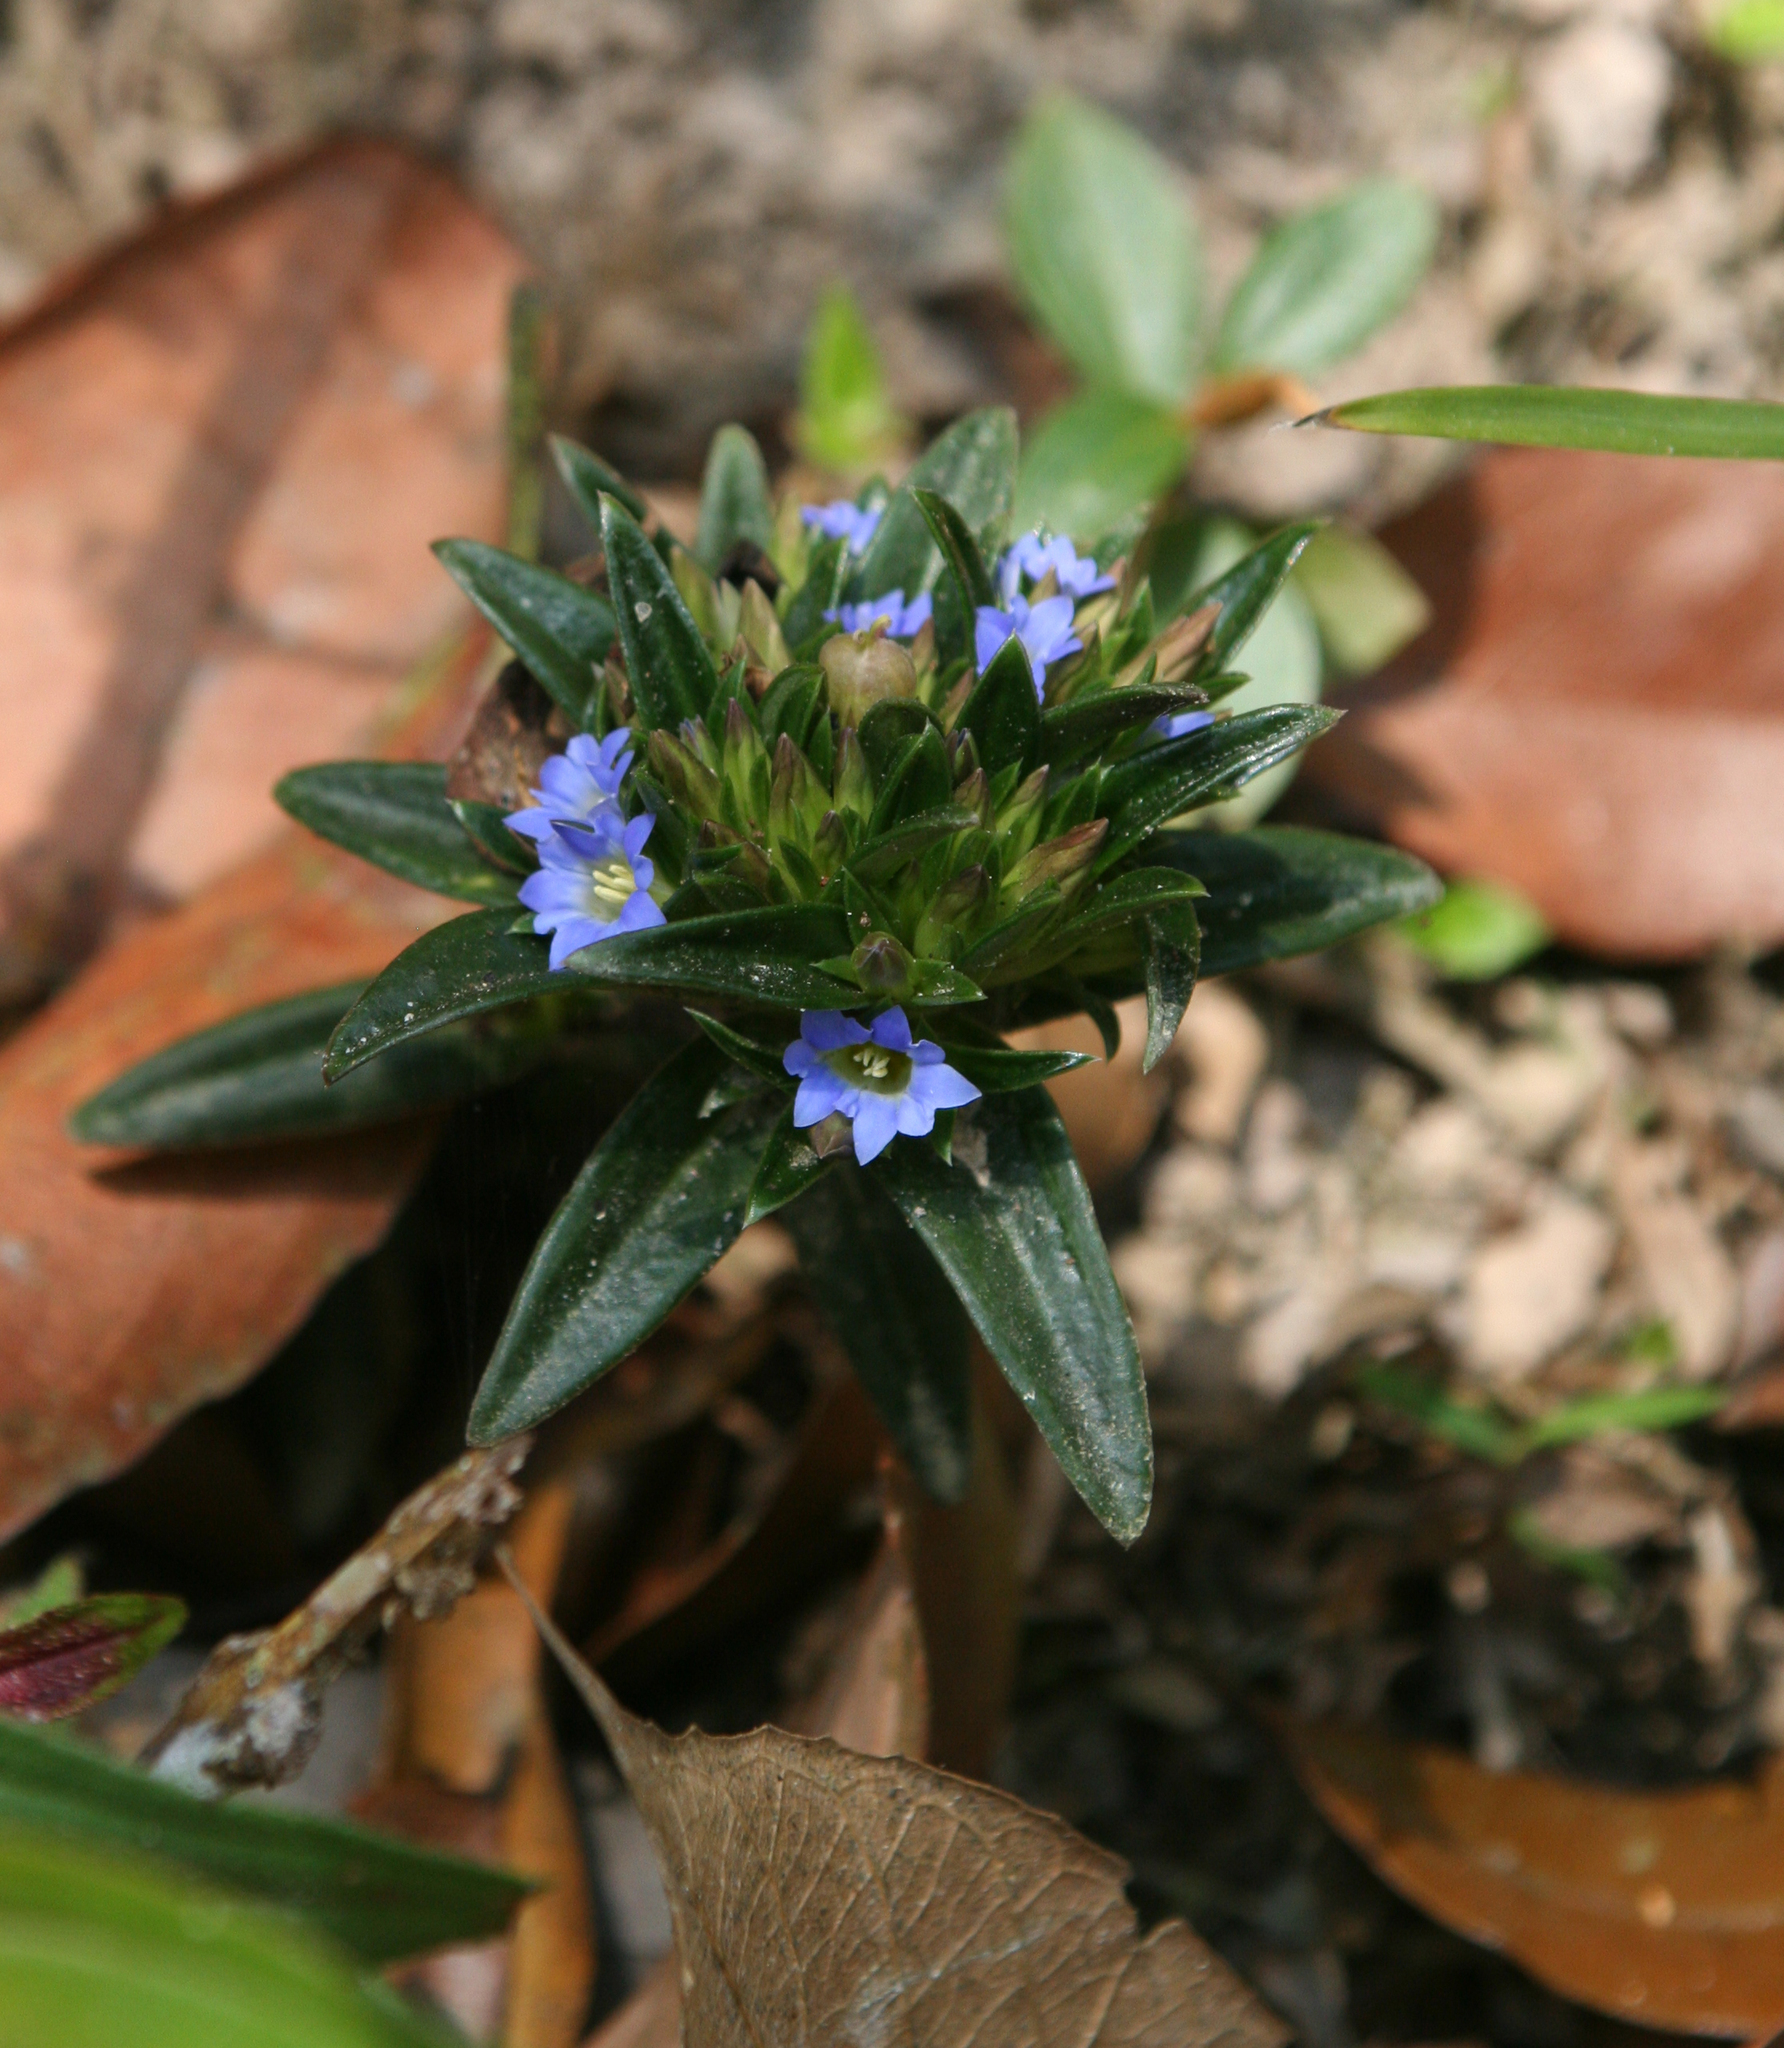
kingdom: Plantae
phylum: Tracheophyta
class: Magnoliopsida
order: Gentianales
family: Gentianaceae
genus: Gentiana
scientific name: Gentiana nudicaulis
